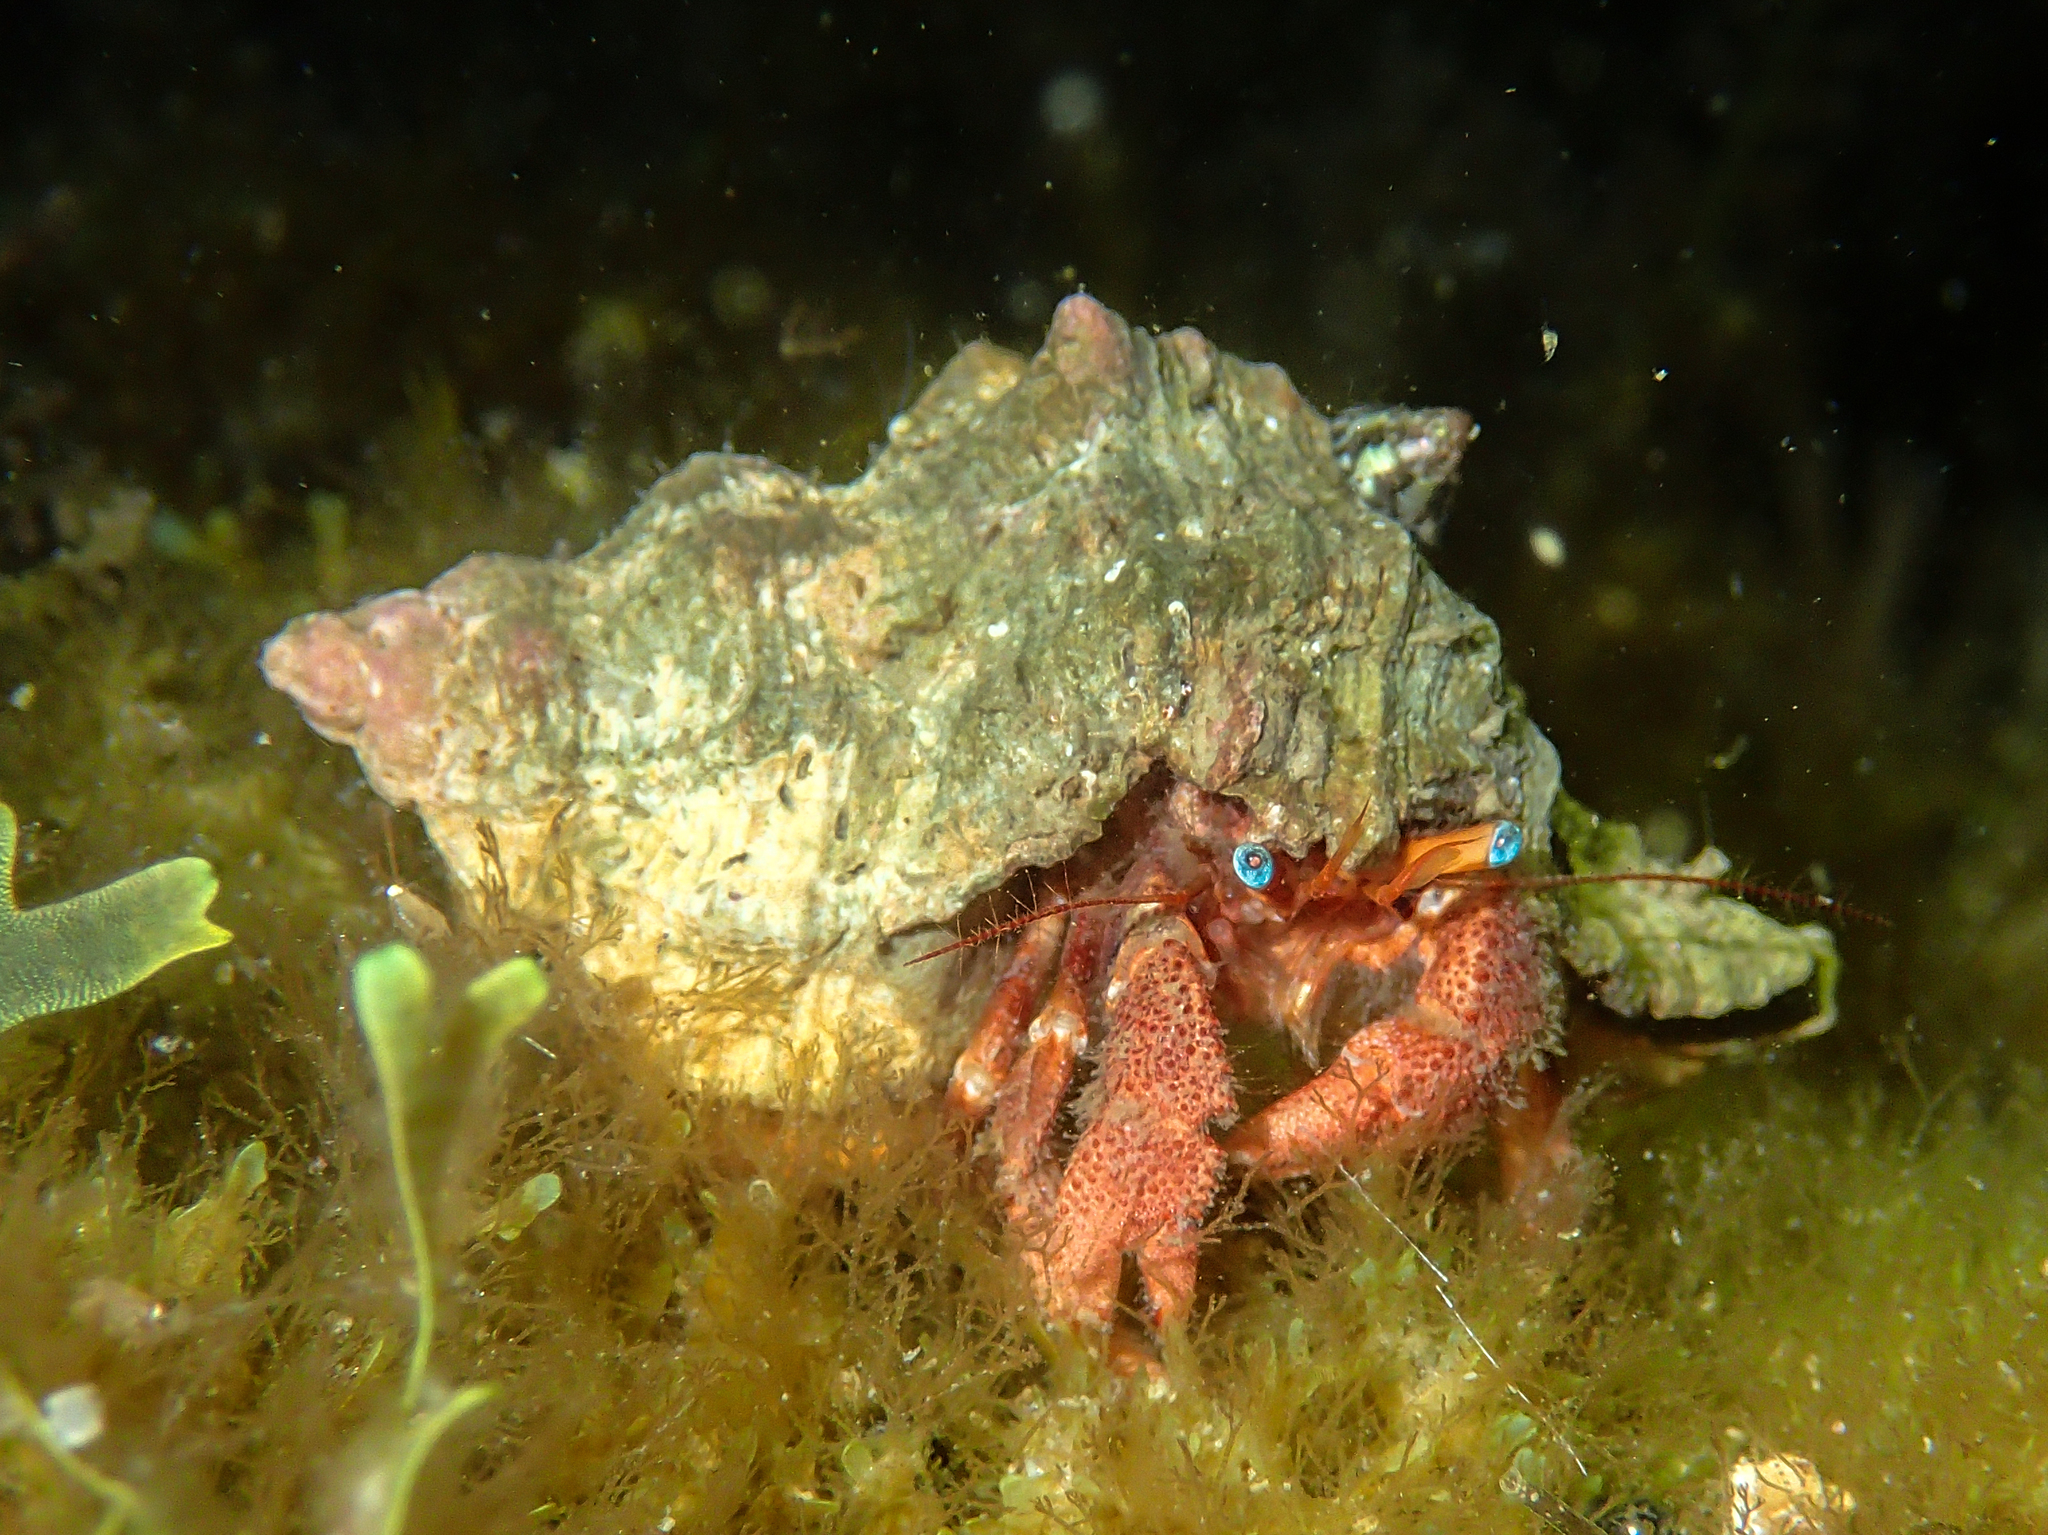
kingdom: Animalia
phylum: Arthropoda
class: Malacostraca
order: Decapoda
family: Diogenidae
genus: Paguristes
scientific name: Paguristes eremita
